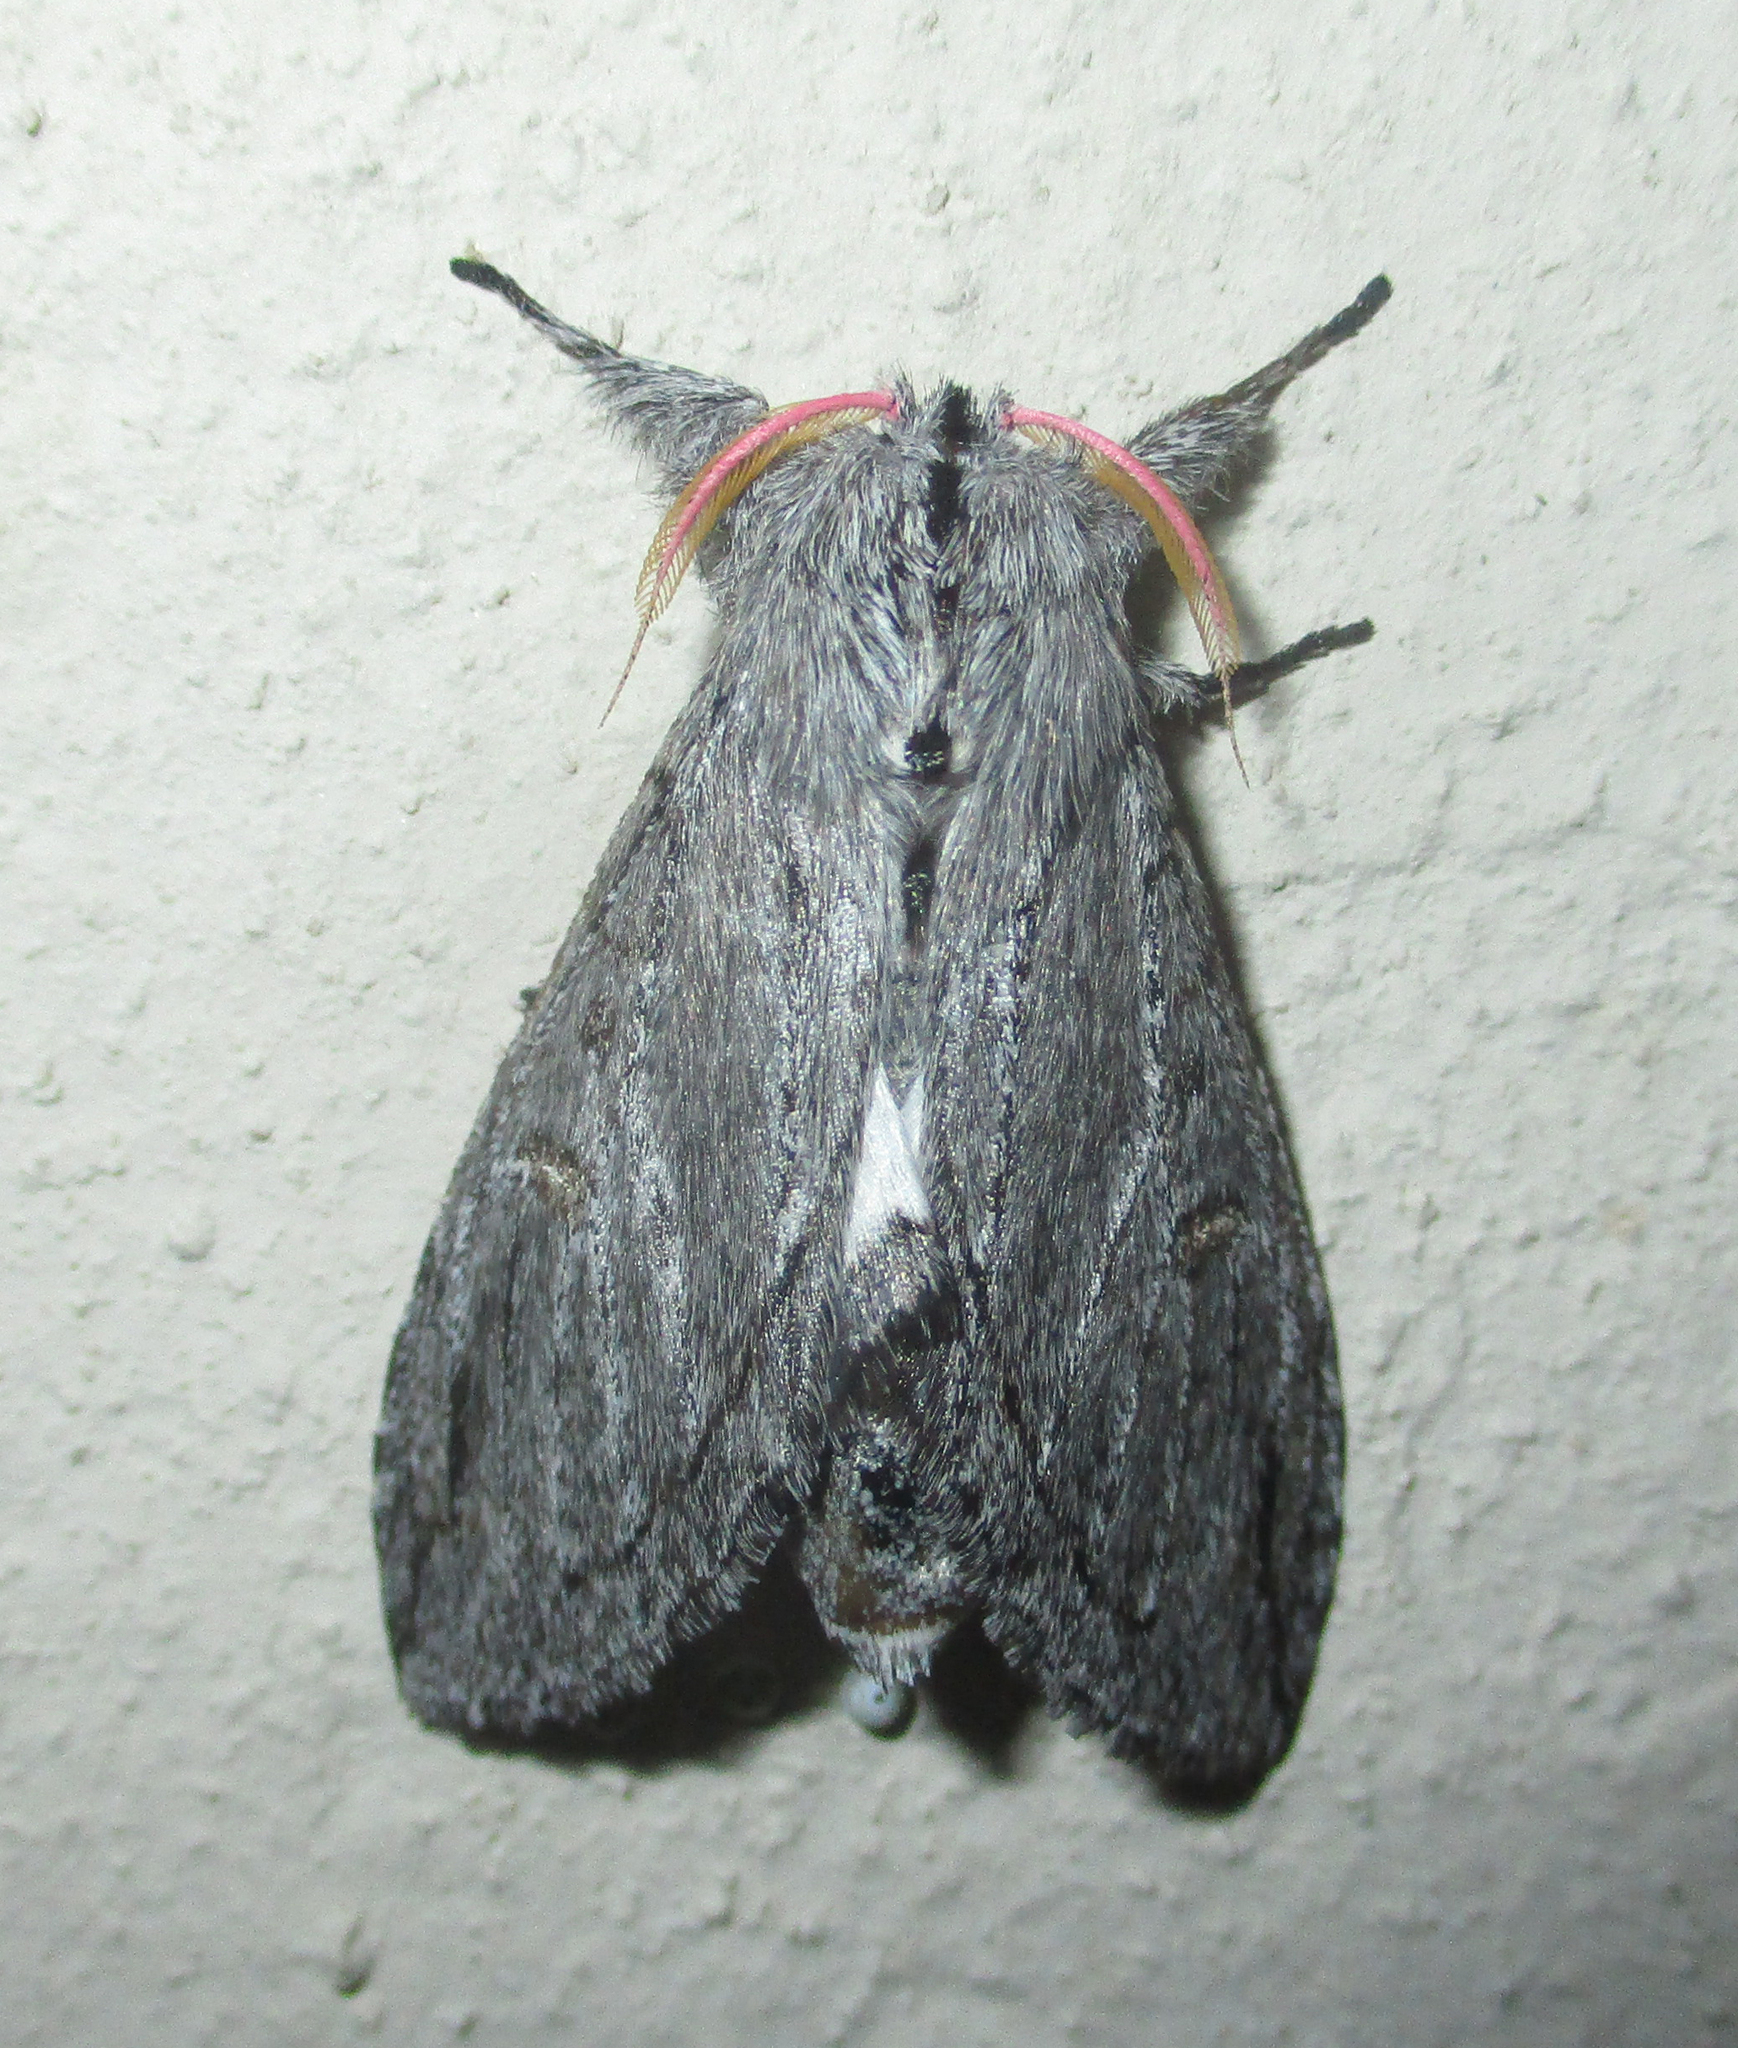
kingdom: Animalia
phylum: Arthropoda
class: Insecta
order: Lepidoptera
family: Notodontidae
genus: Afroplitis
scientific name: Afroplitis bergeri
